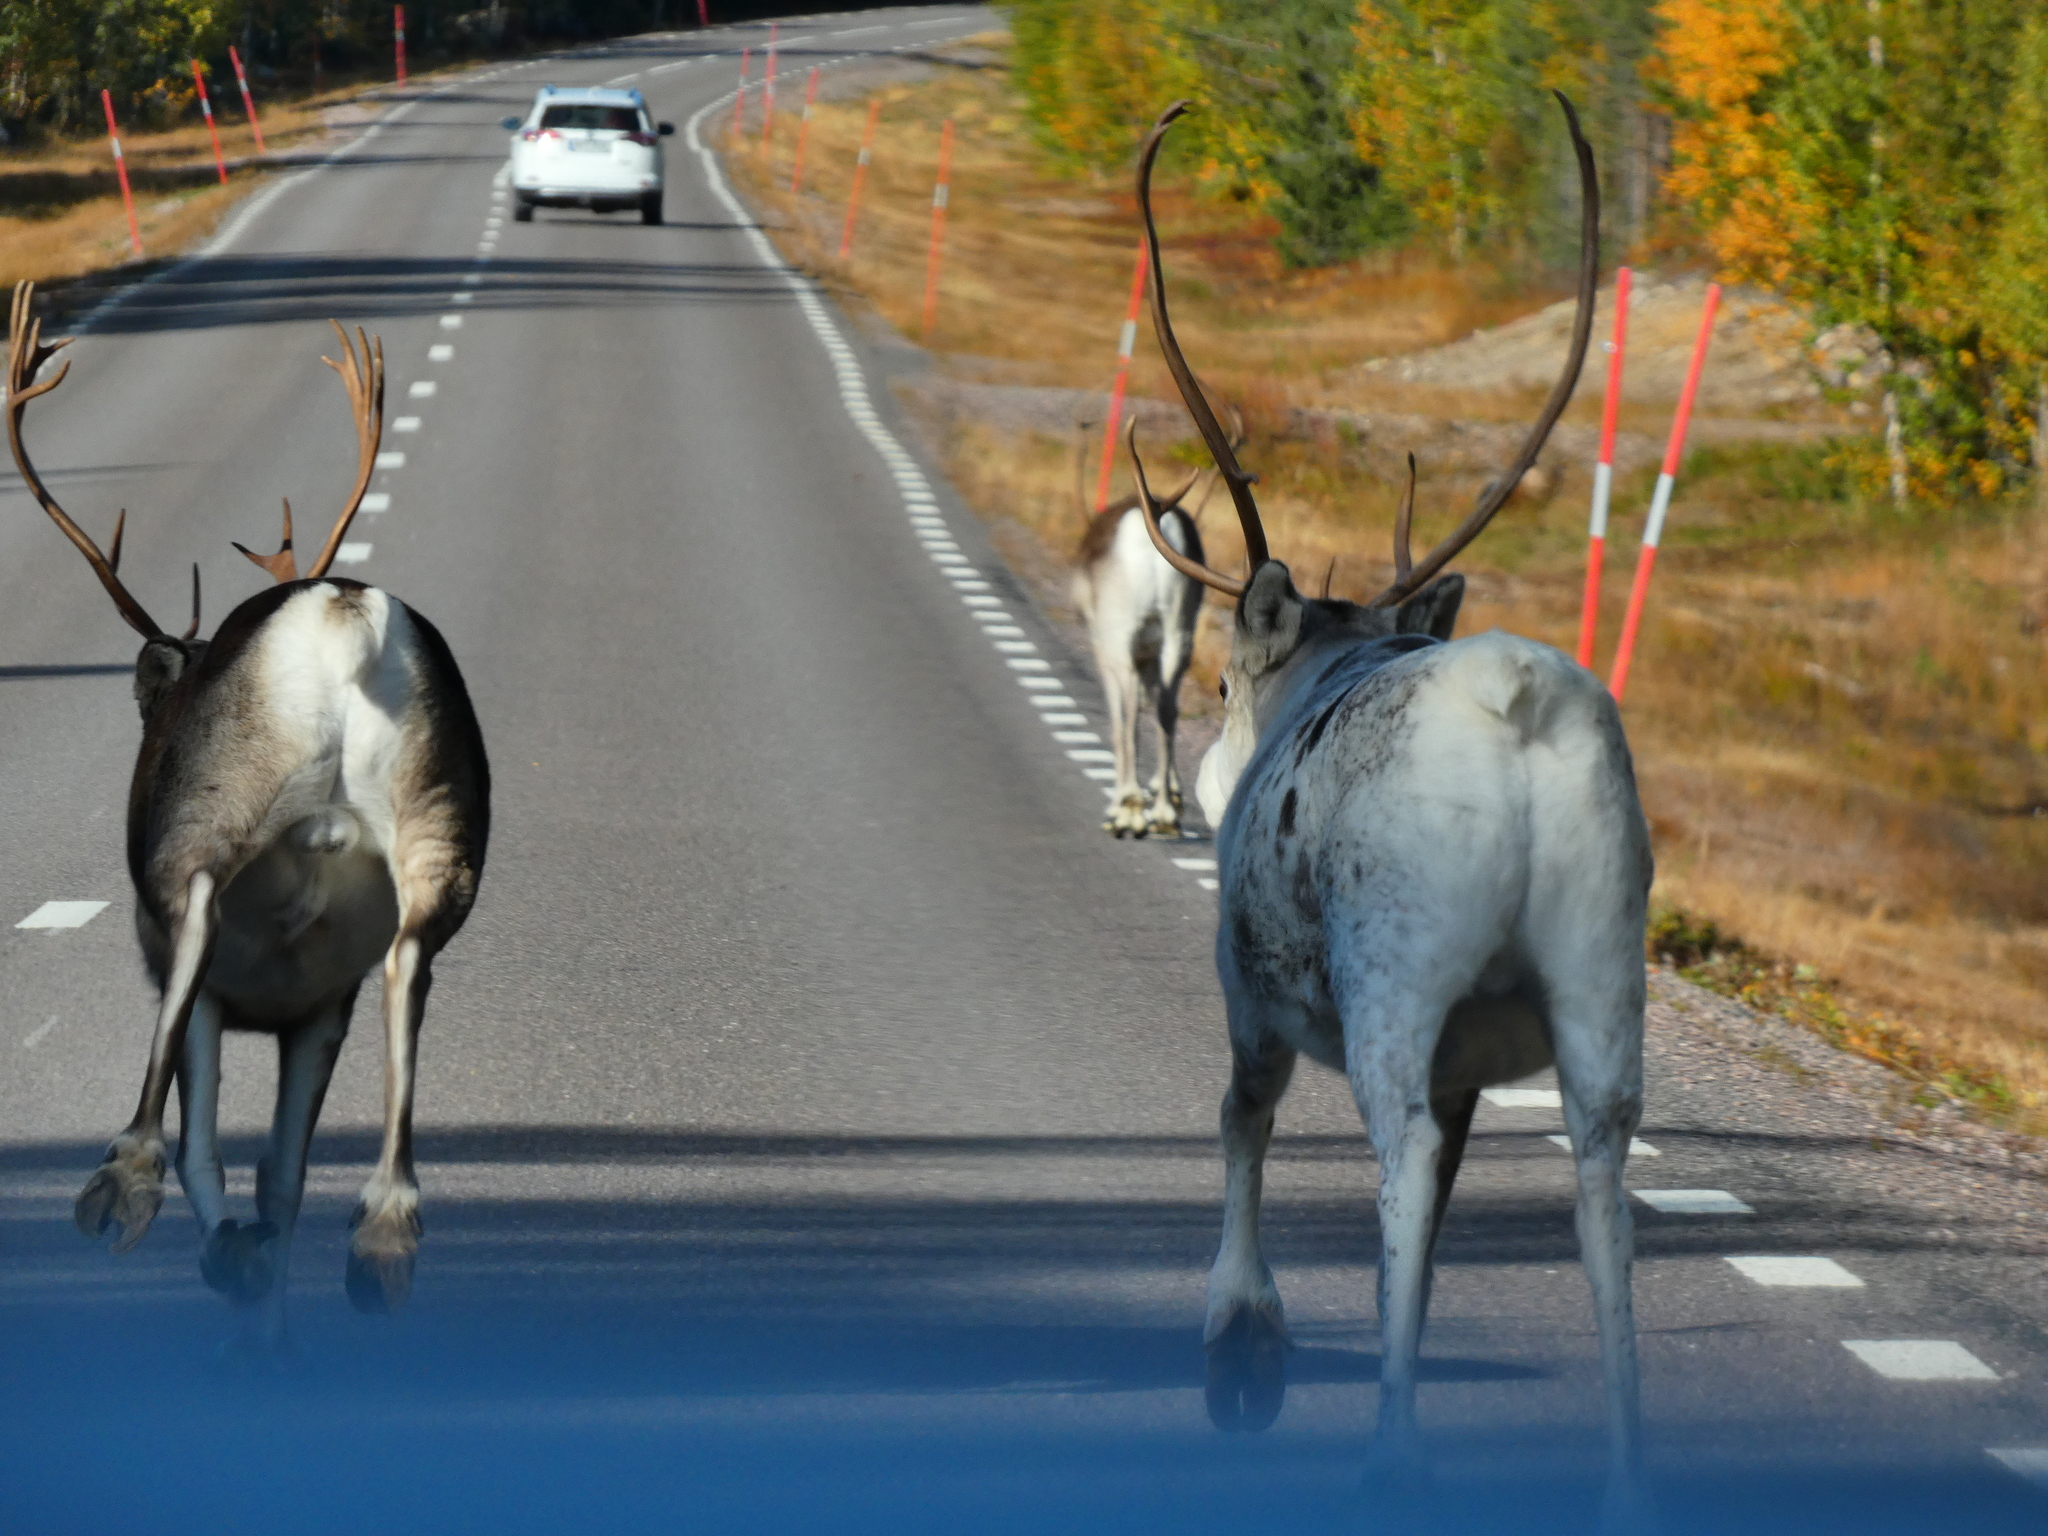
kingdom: Animalia
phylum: Chordata
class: Mammalia
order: Artiodactyla
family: Cervidae
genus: Rangifer
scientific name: Rangifer tarandus
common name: Reindeer
